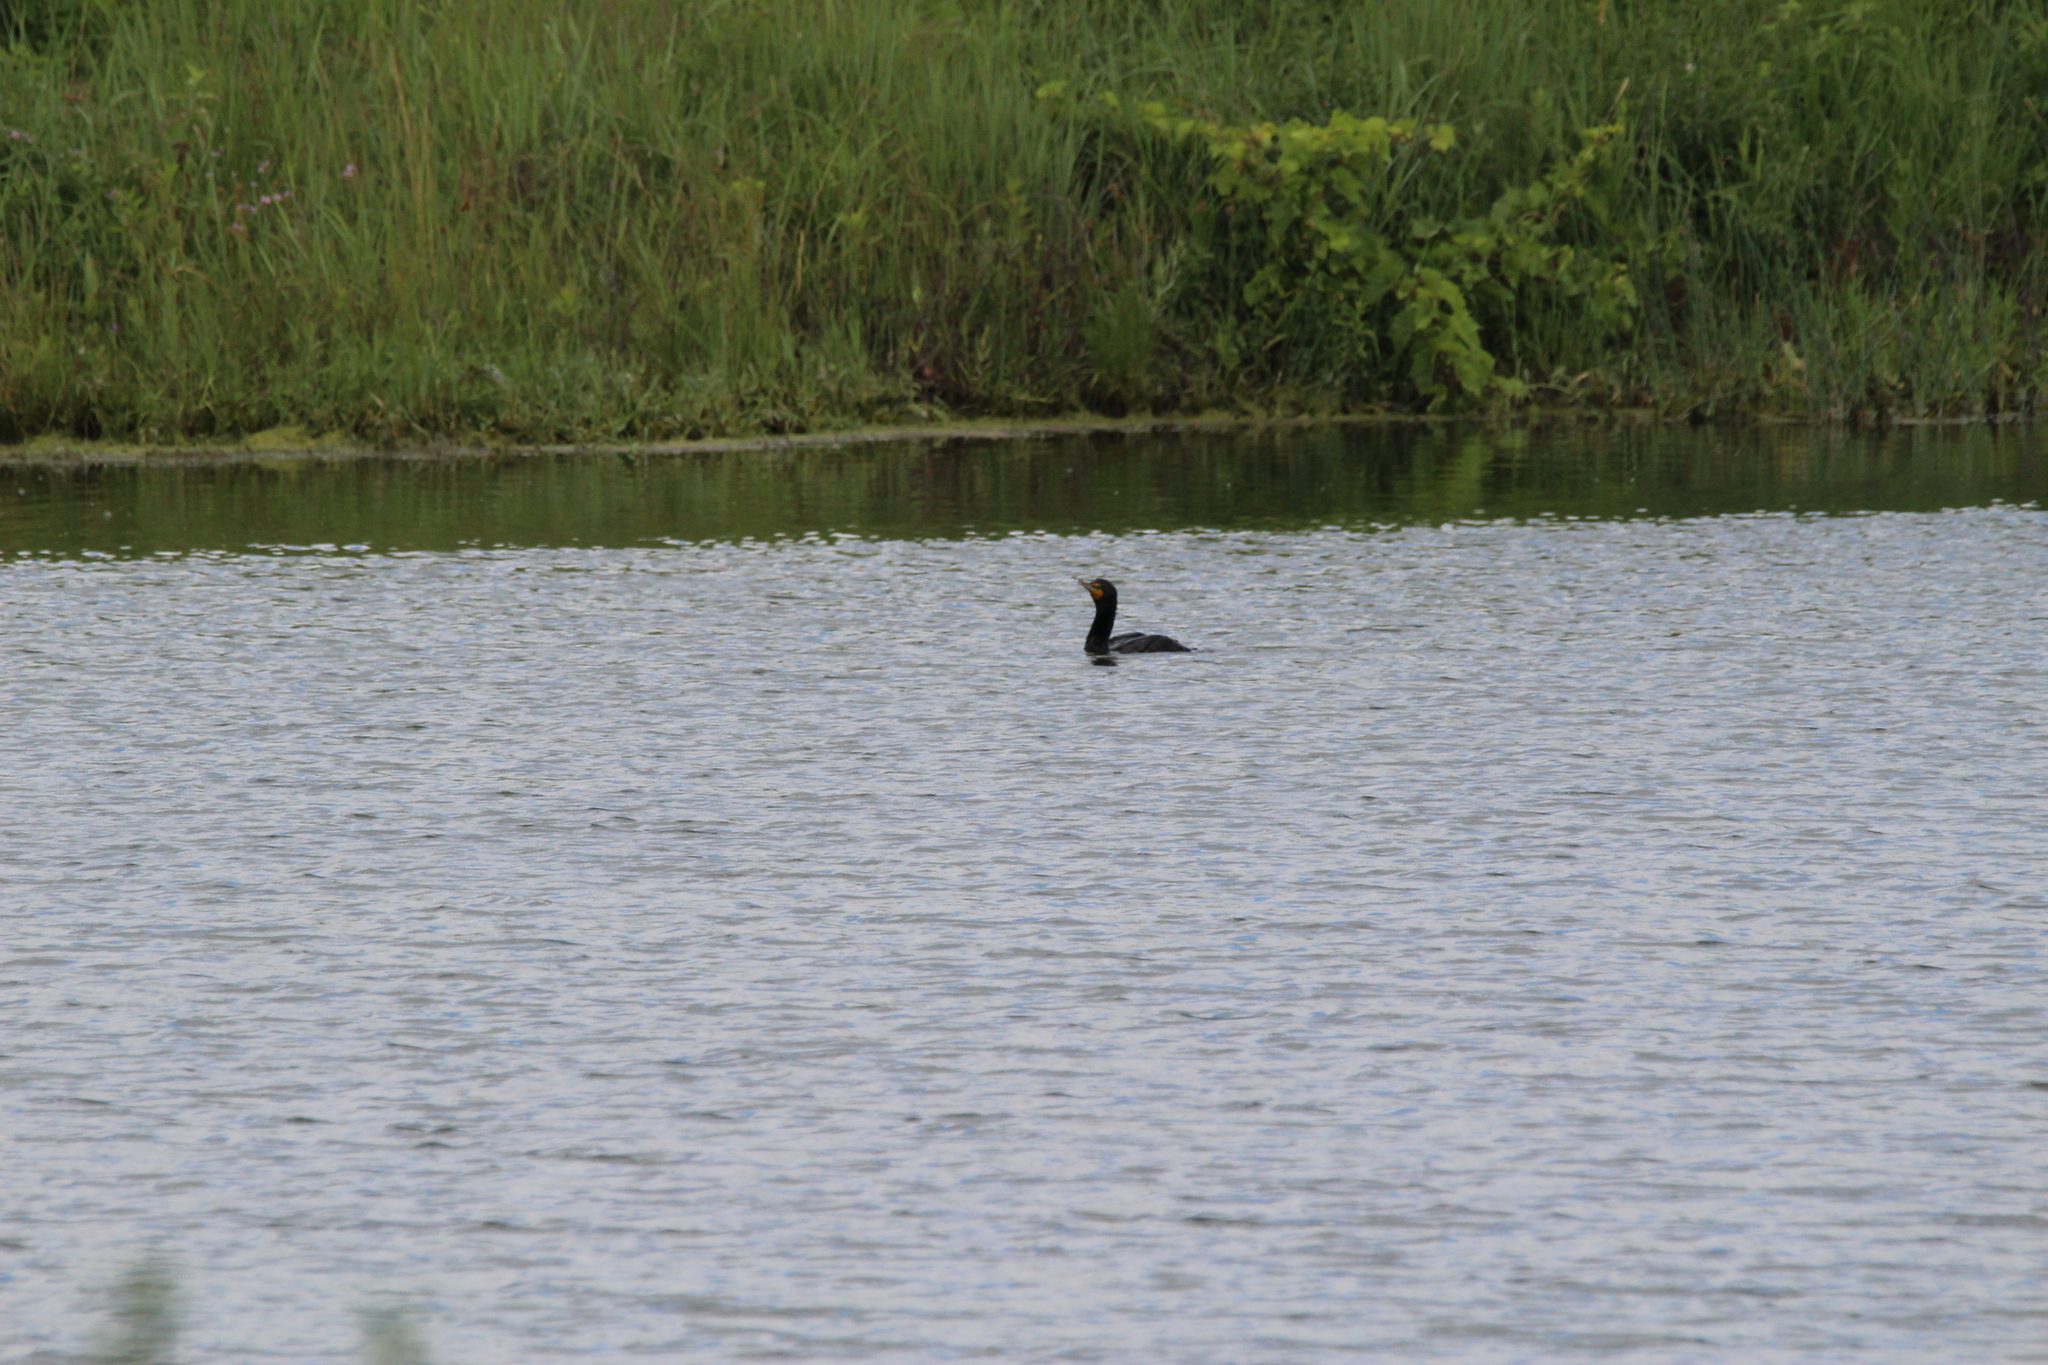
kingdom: Animalia
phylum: Chordata
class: Aves
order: Suliformes
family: Phalacrocoracidae
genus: Phalacrocorax
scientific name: Phalacrocorax auritus
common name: Double-crested cormorant
